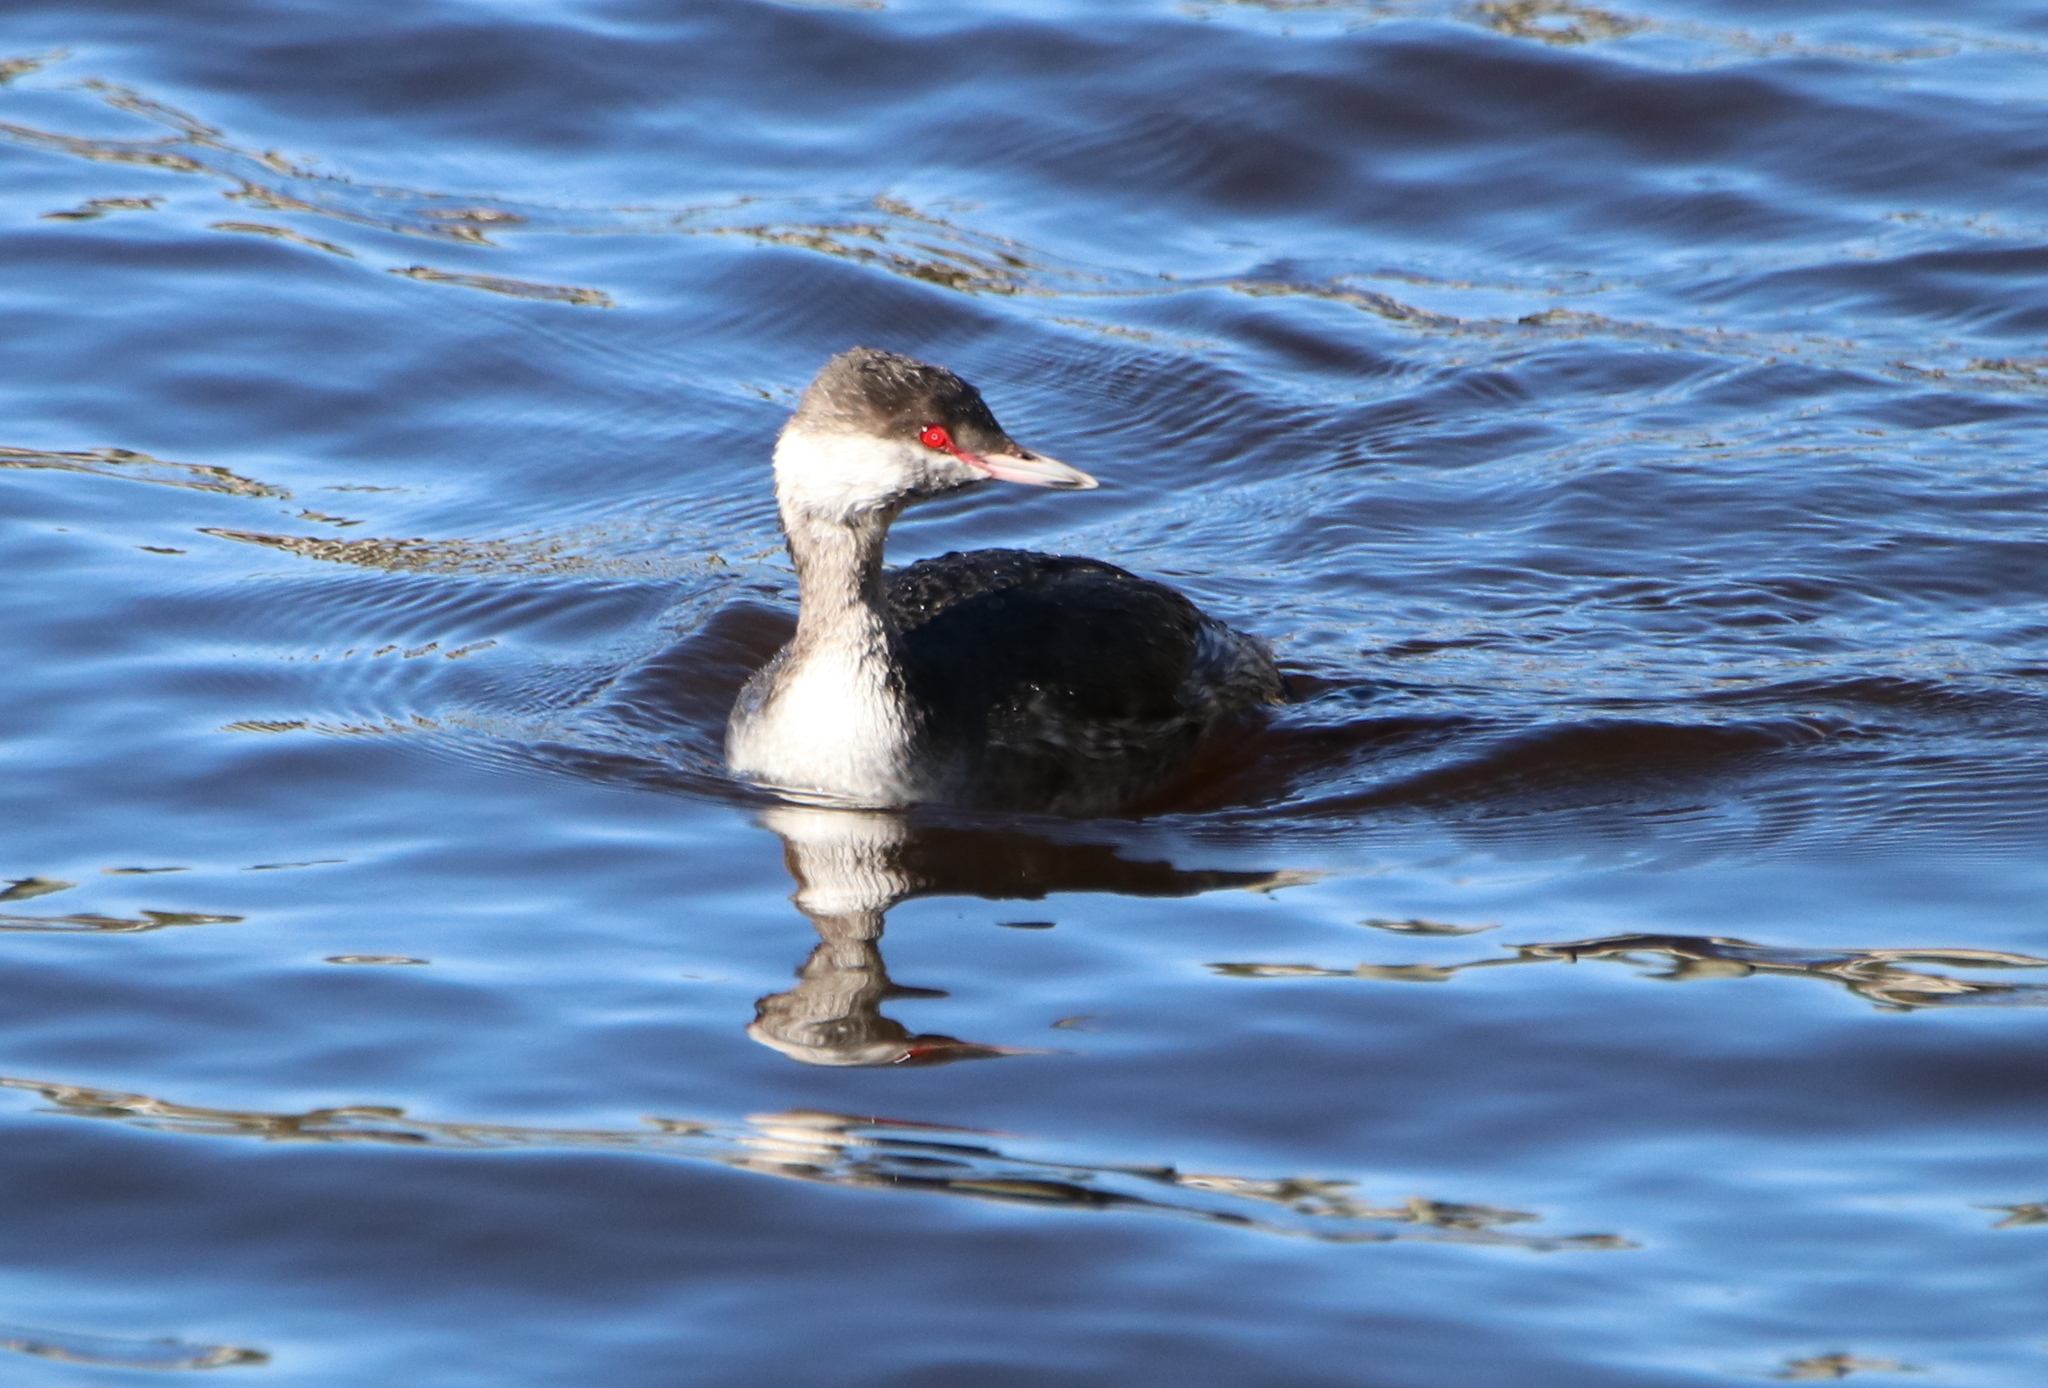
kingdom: Animalia
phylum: Chordata
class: Aves
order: Podicipediformes
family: Podicipedidae
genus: Podiceps
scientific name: Podiceps auritus
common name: Horned grebe
